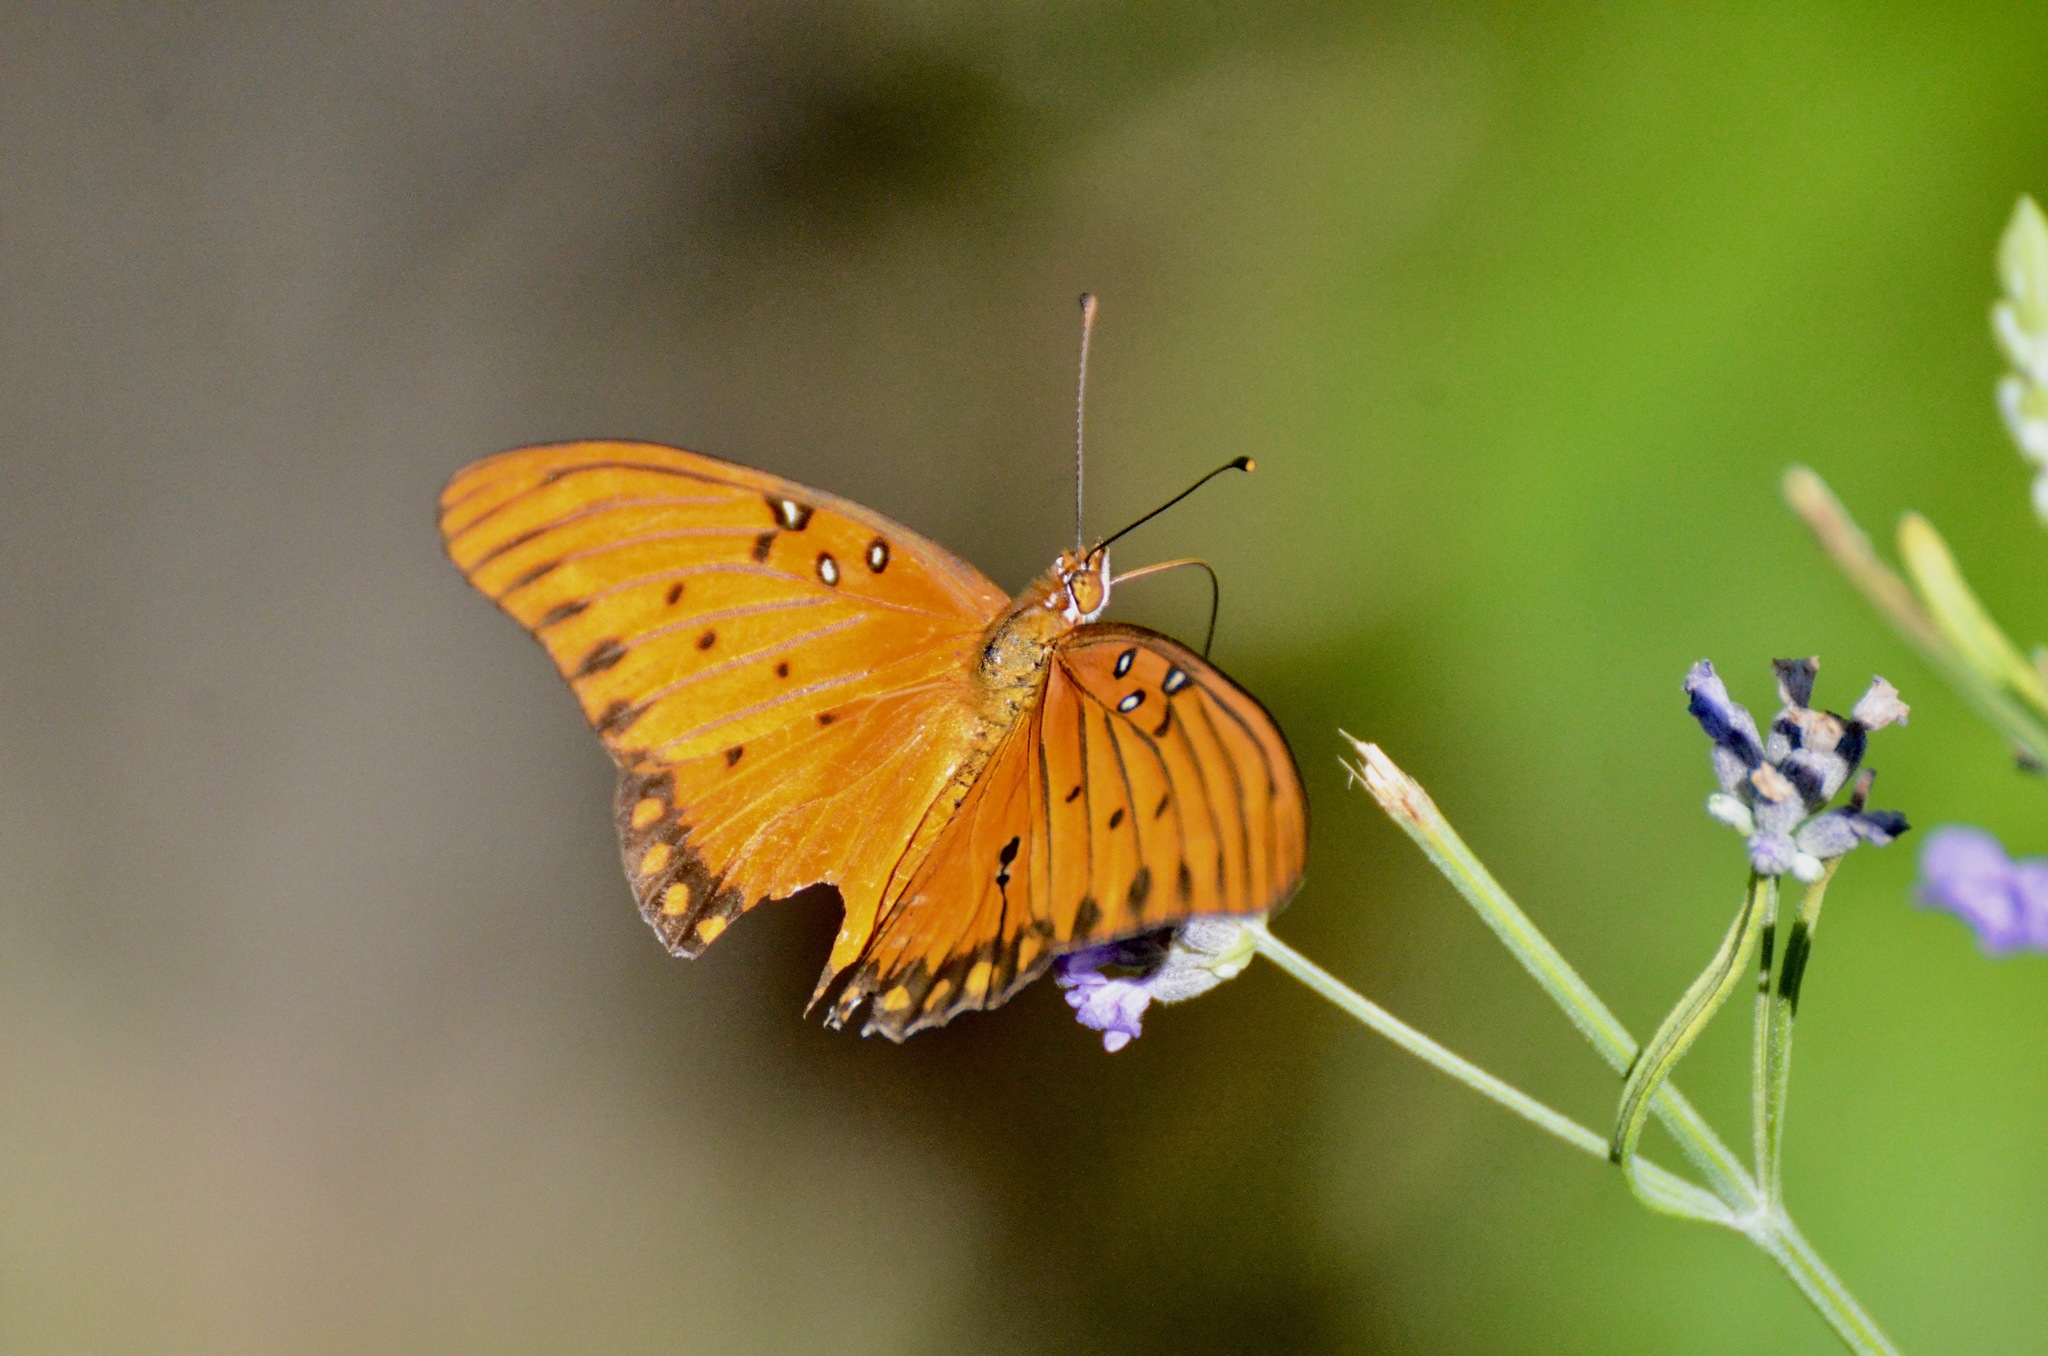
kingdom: Animalia
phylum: Arthropoda
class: Insecta
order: Lepidoptera
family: Nymphalidae
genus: Dione
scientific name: Dione vanillae
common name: Gulf fritillary
